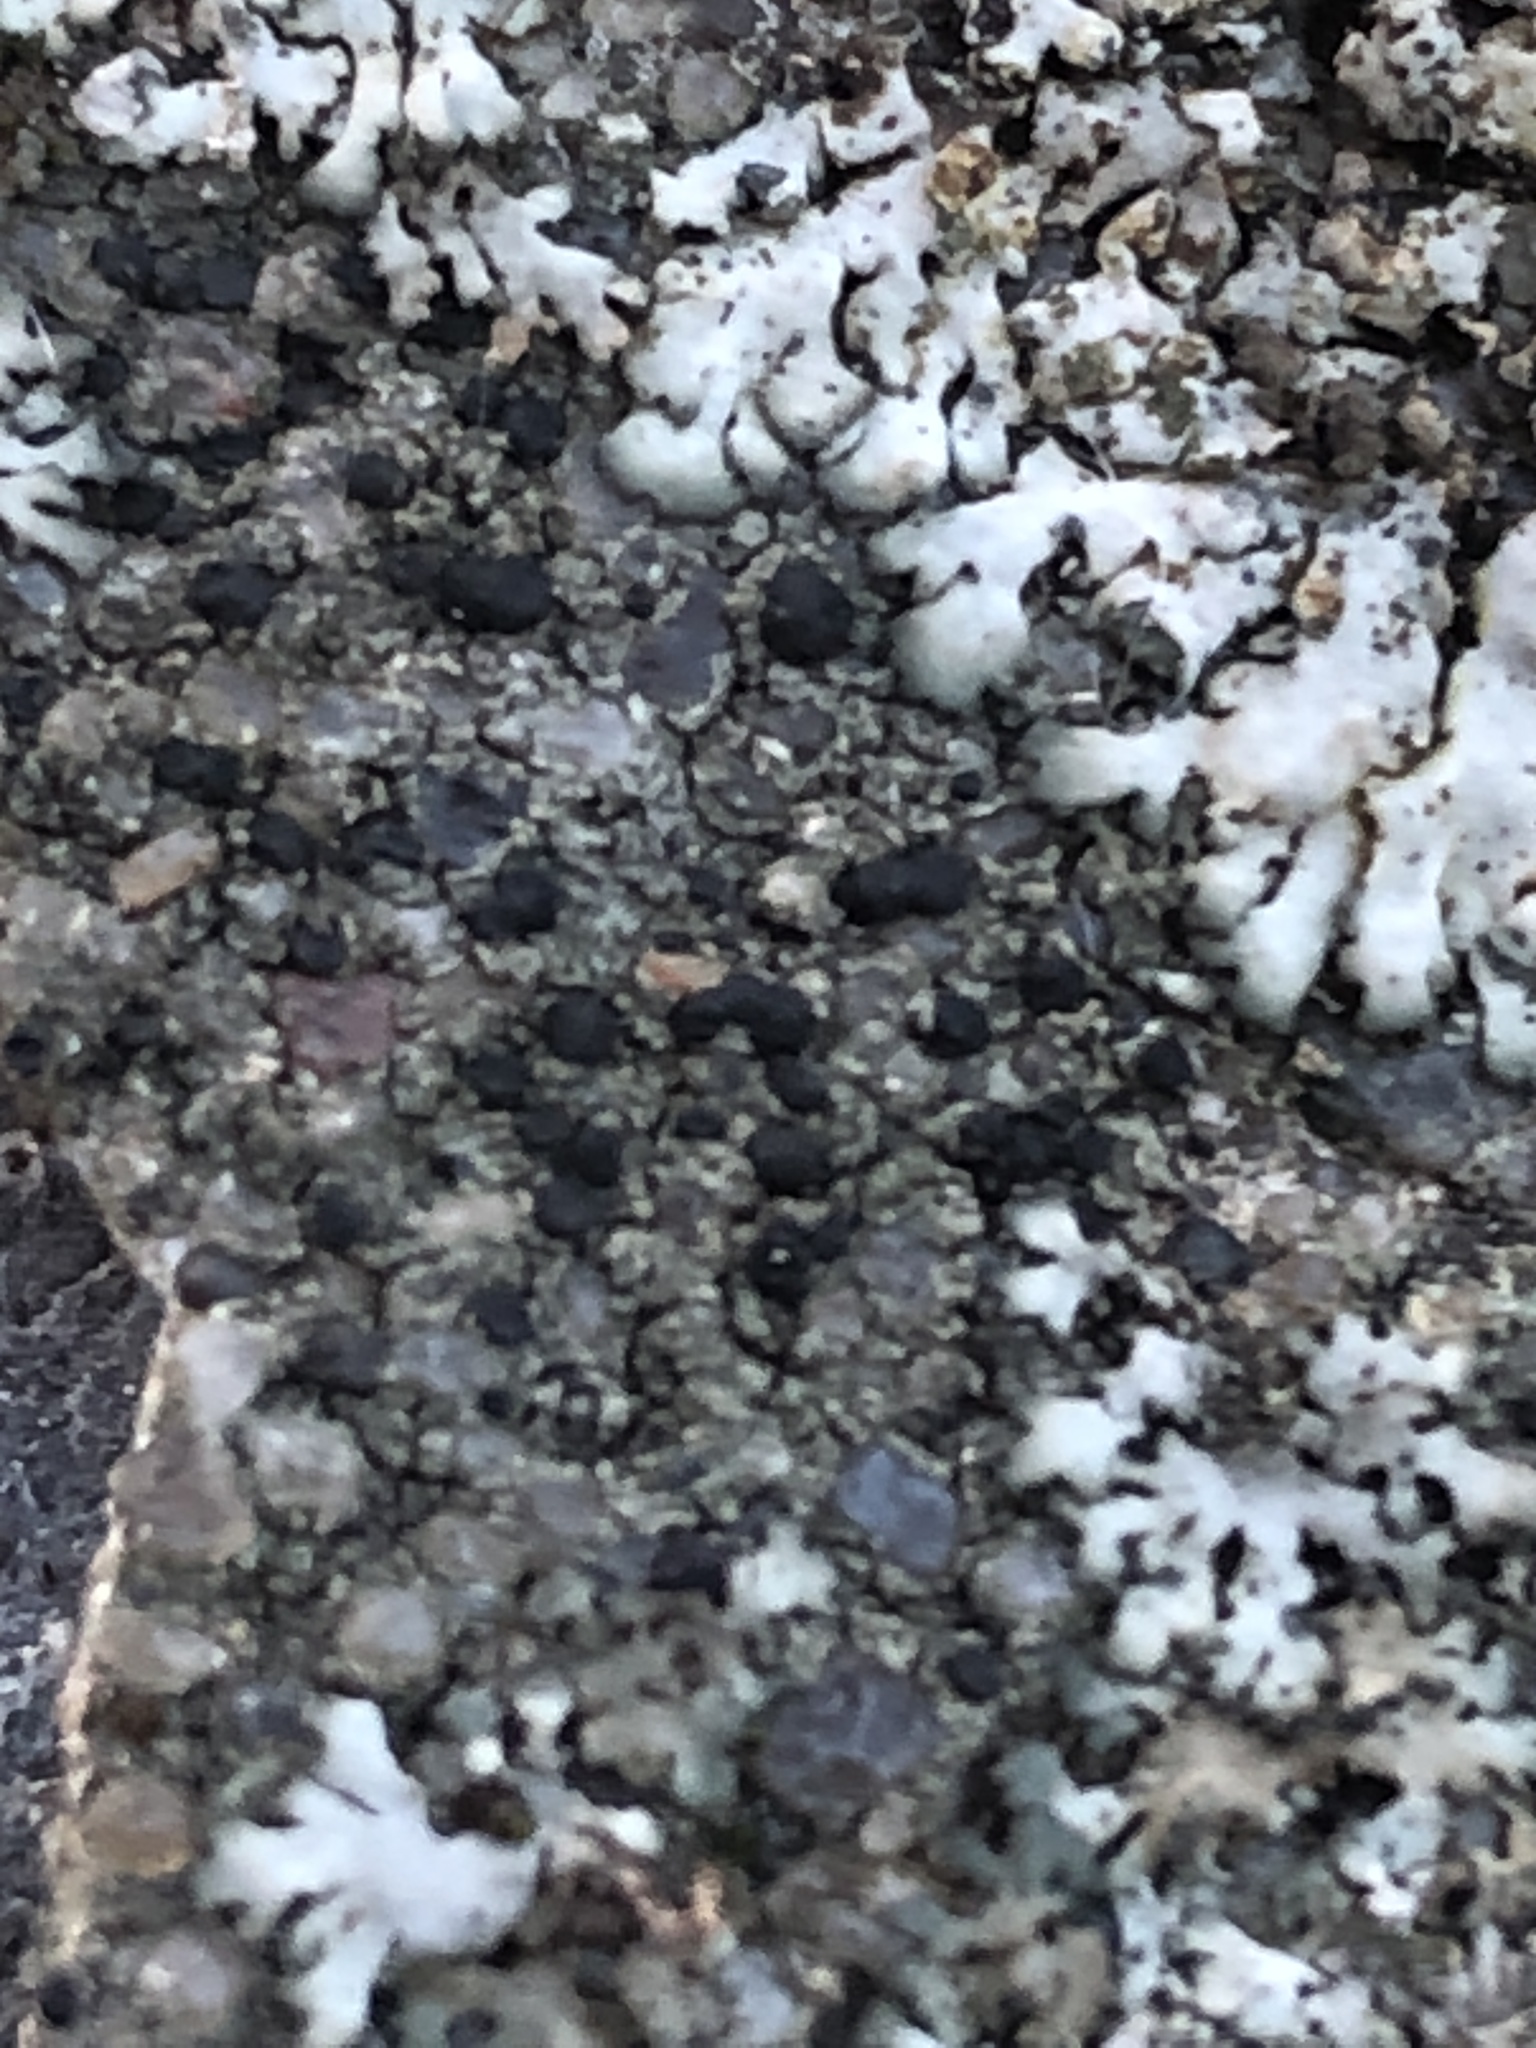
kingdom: Fungi
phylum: Ascomycota
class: Lecanoromycetes
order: Lecanorales
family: Lecanoraceae
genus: Lecidella
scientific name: Lecidella stigmatea
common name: Limestone disc lichen
